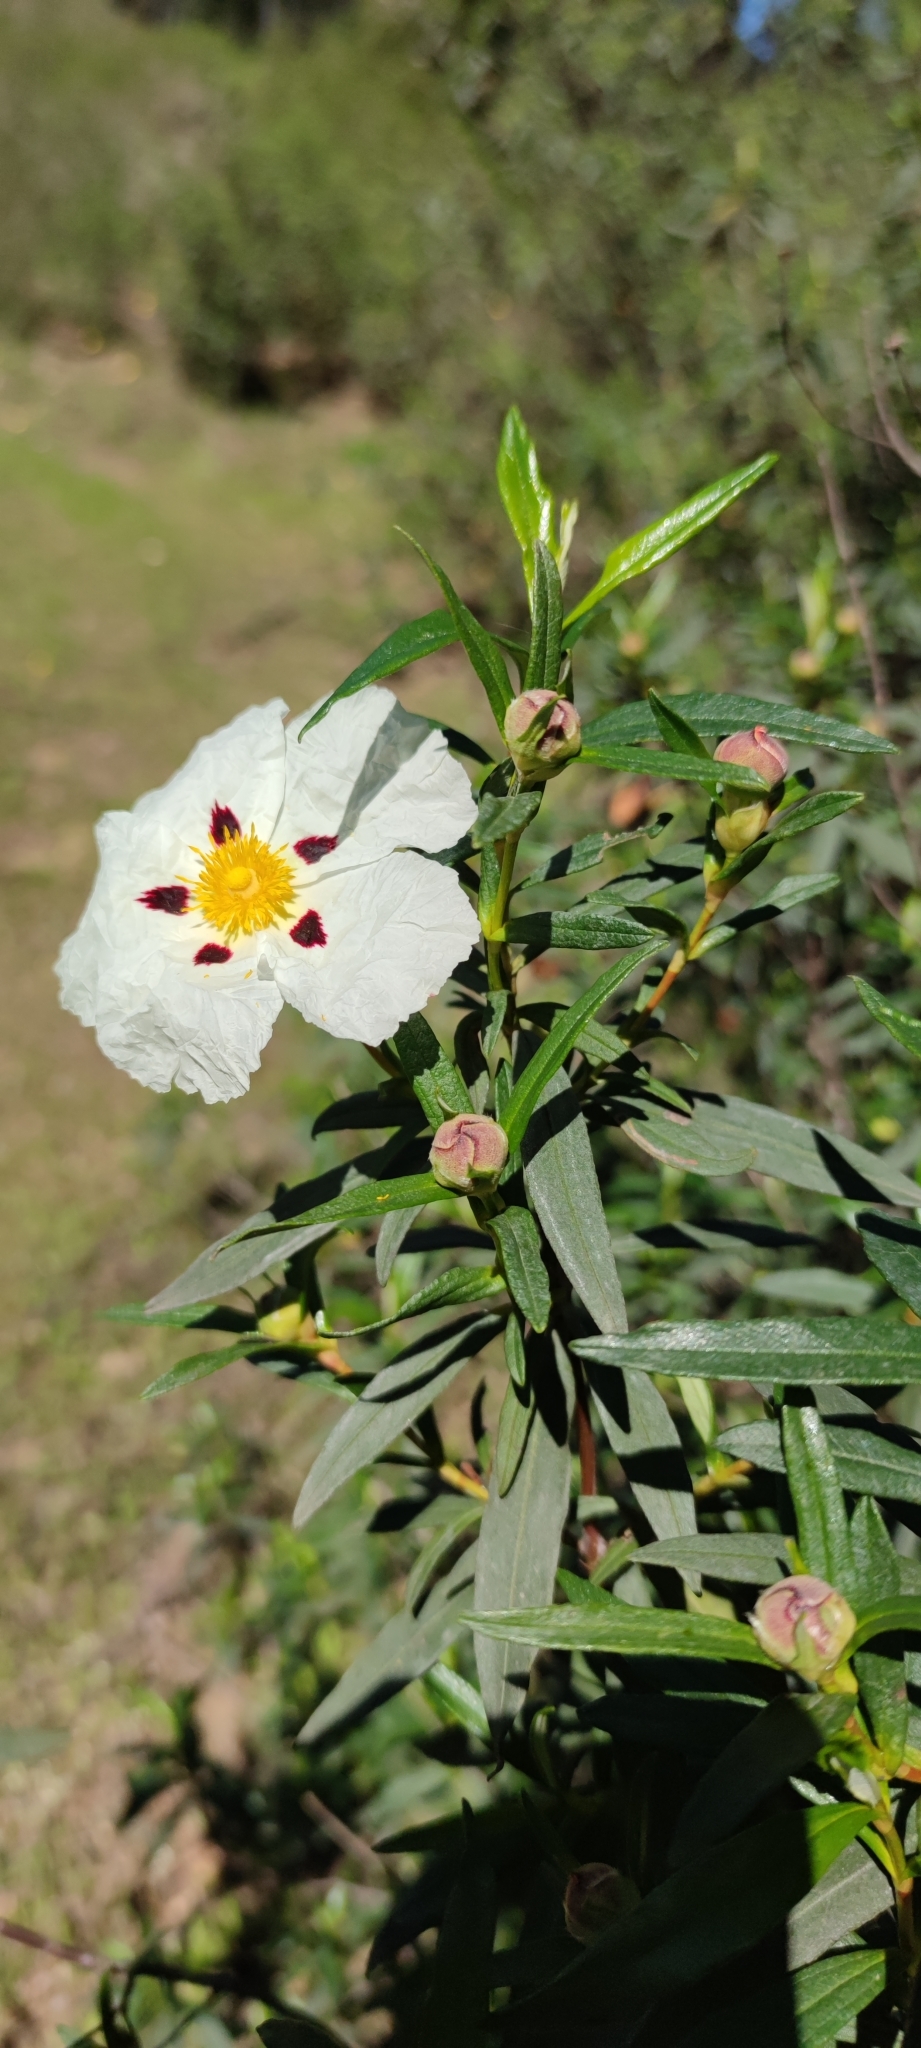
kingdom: Plantae
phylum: Tracheophyta
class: Magnoliopsida
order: Malvales
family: Cistaceae
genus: Cistus
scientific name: Cistus ladanifer
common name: Common gum cistus
